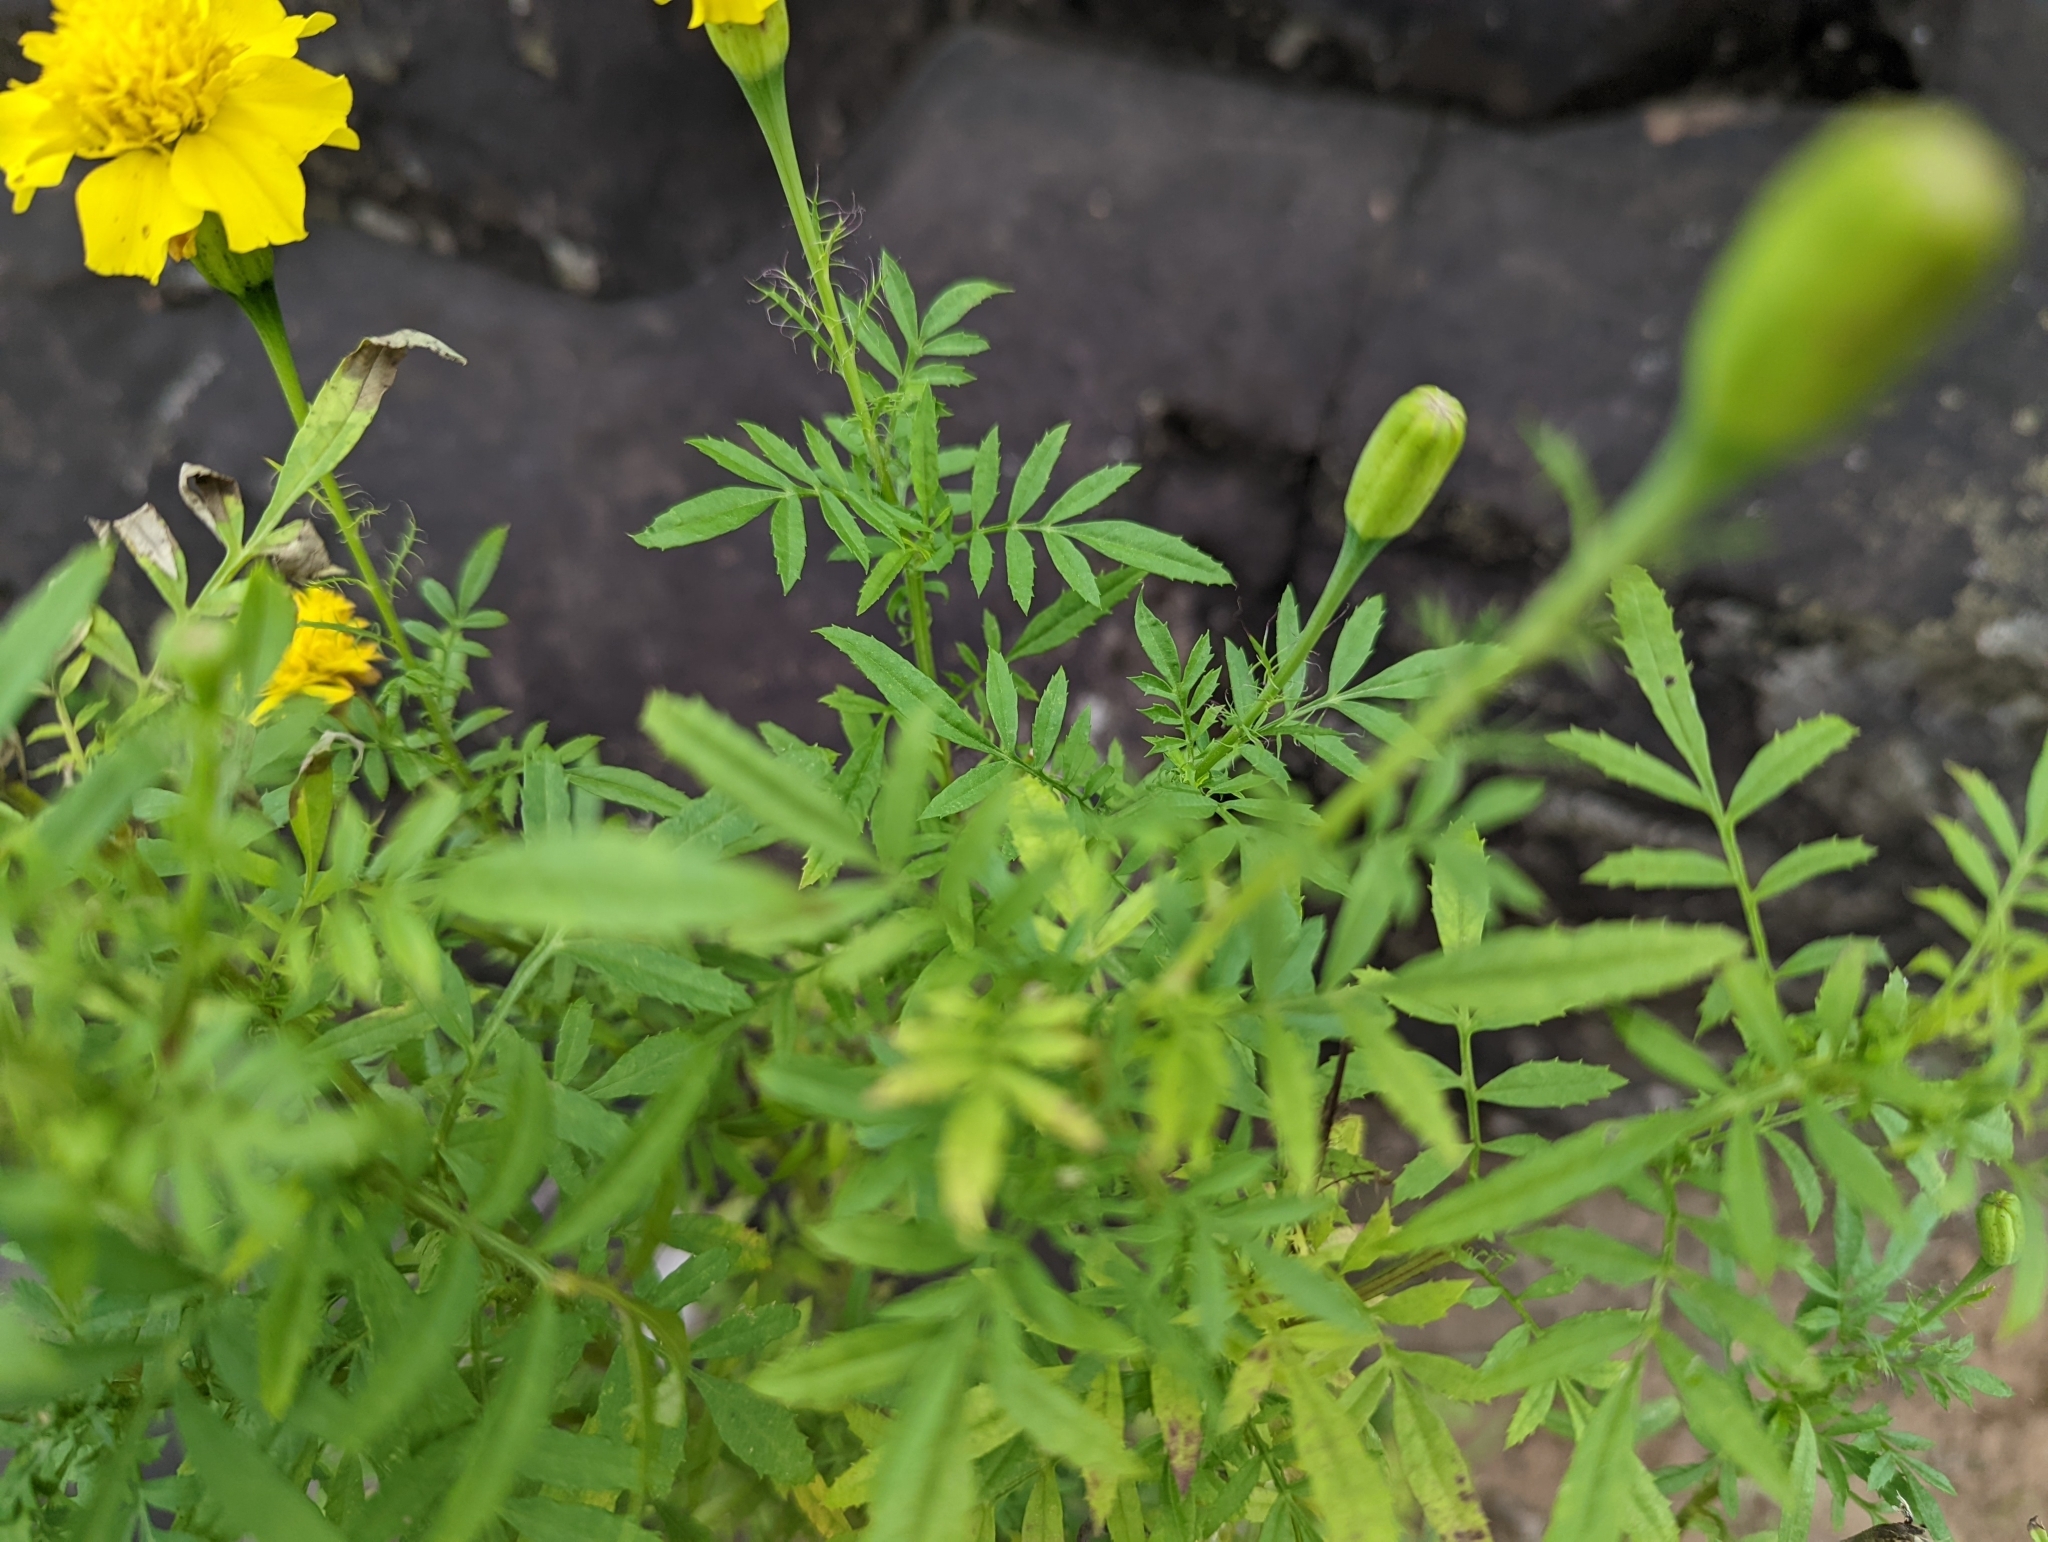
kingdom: Plantae
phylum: Tracheophyta
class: Magnoliopsida
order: Asterales
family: Asteraceae
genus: Cosmos
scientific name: Cosmos sulphureus
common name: Sulphur cosmos
